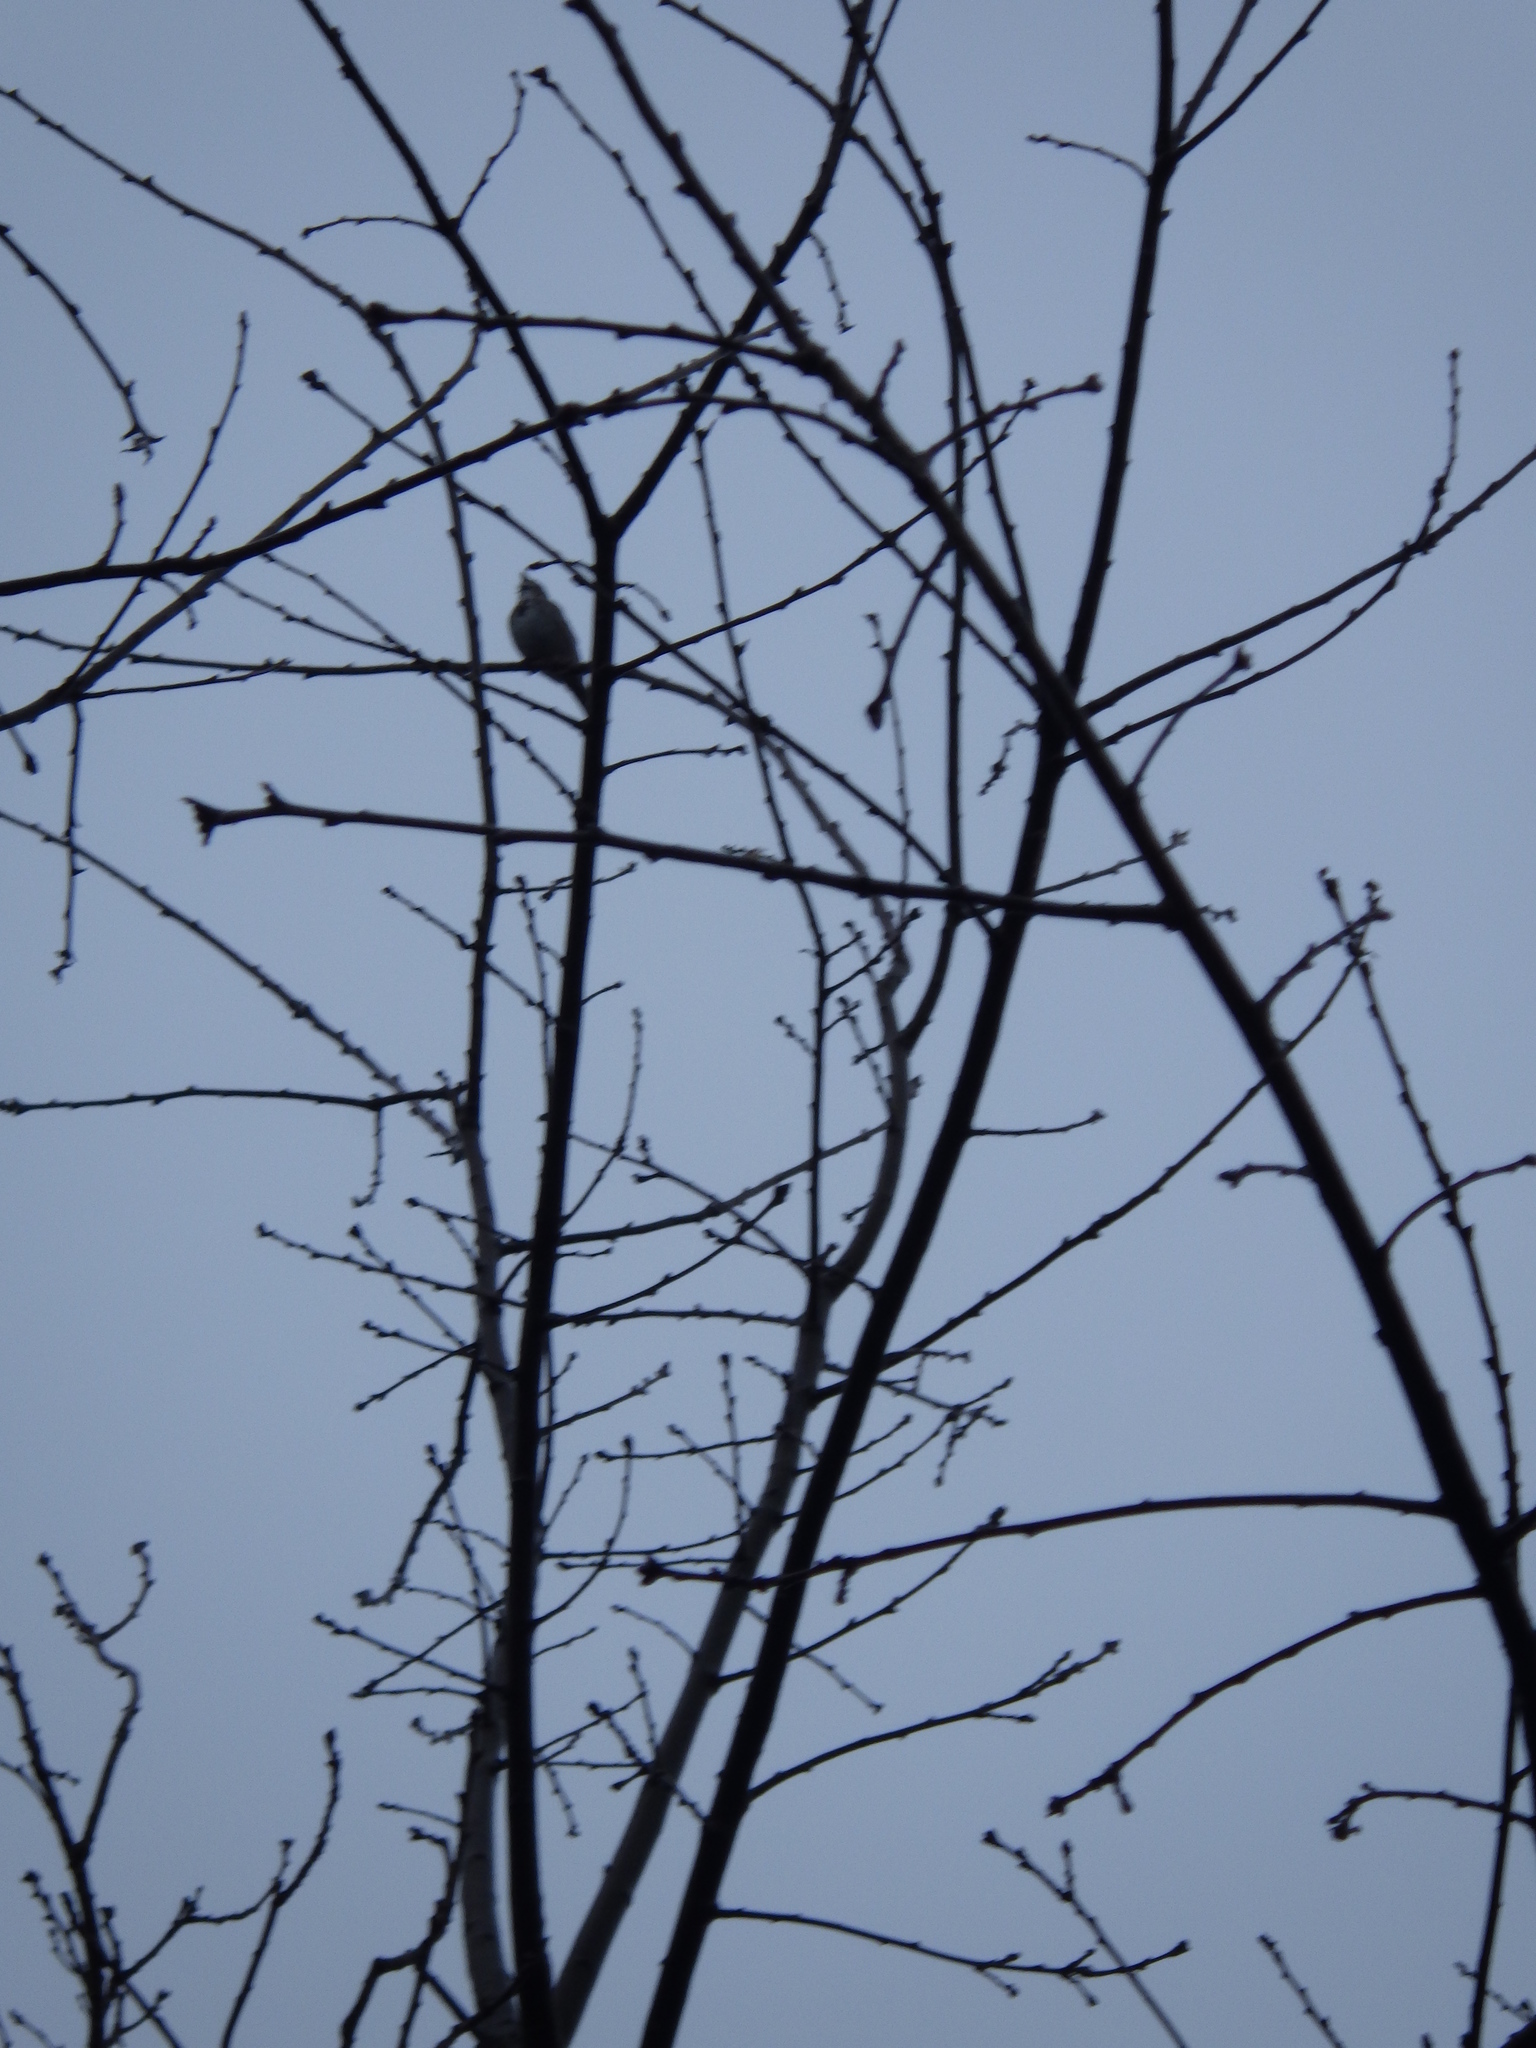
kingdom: Animalia
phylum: Chordata
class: Aves
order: Passeriformes
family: Passerellidae
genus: Melospiza
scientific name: Melospiza melodia
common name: Song sparrow
